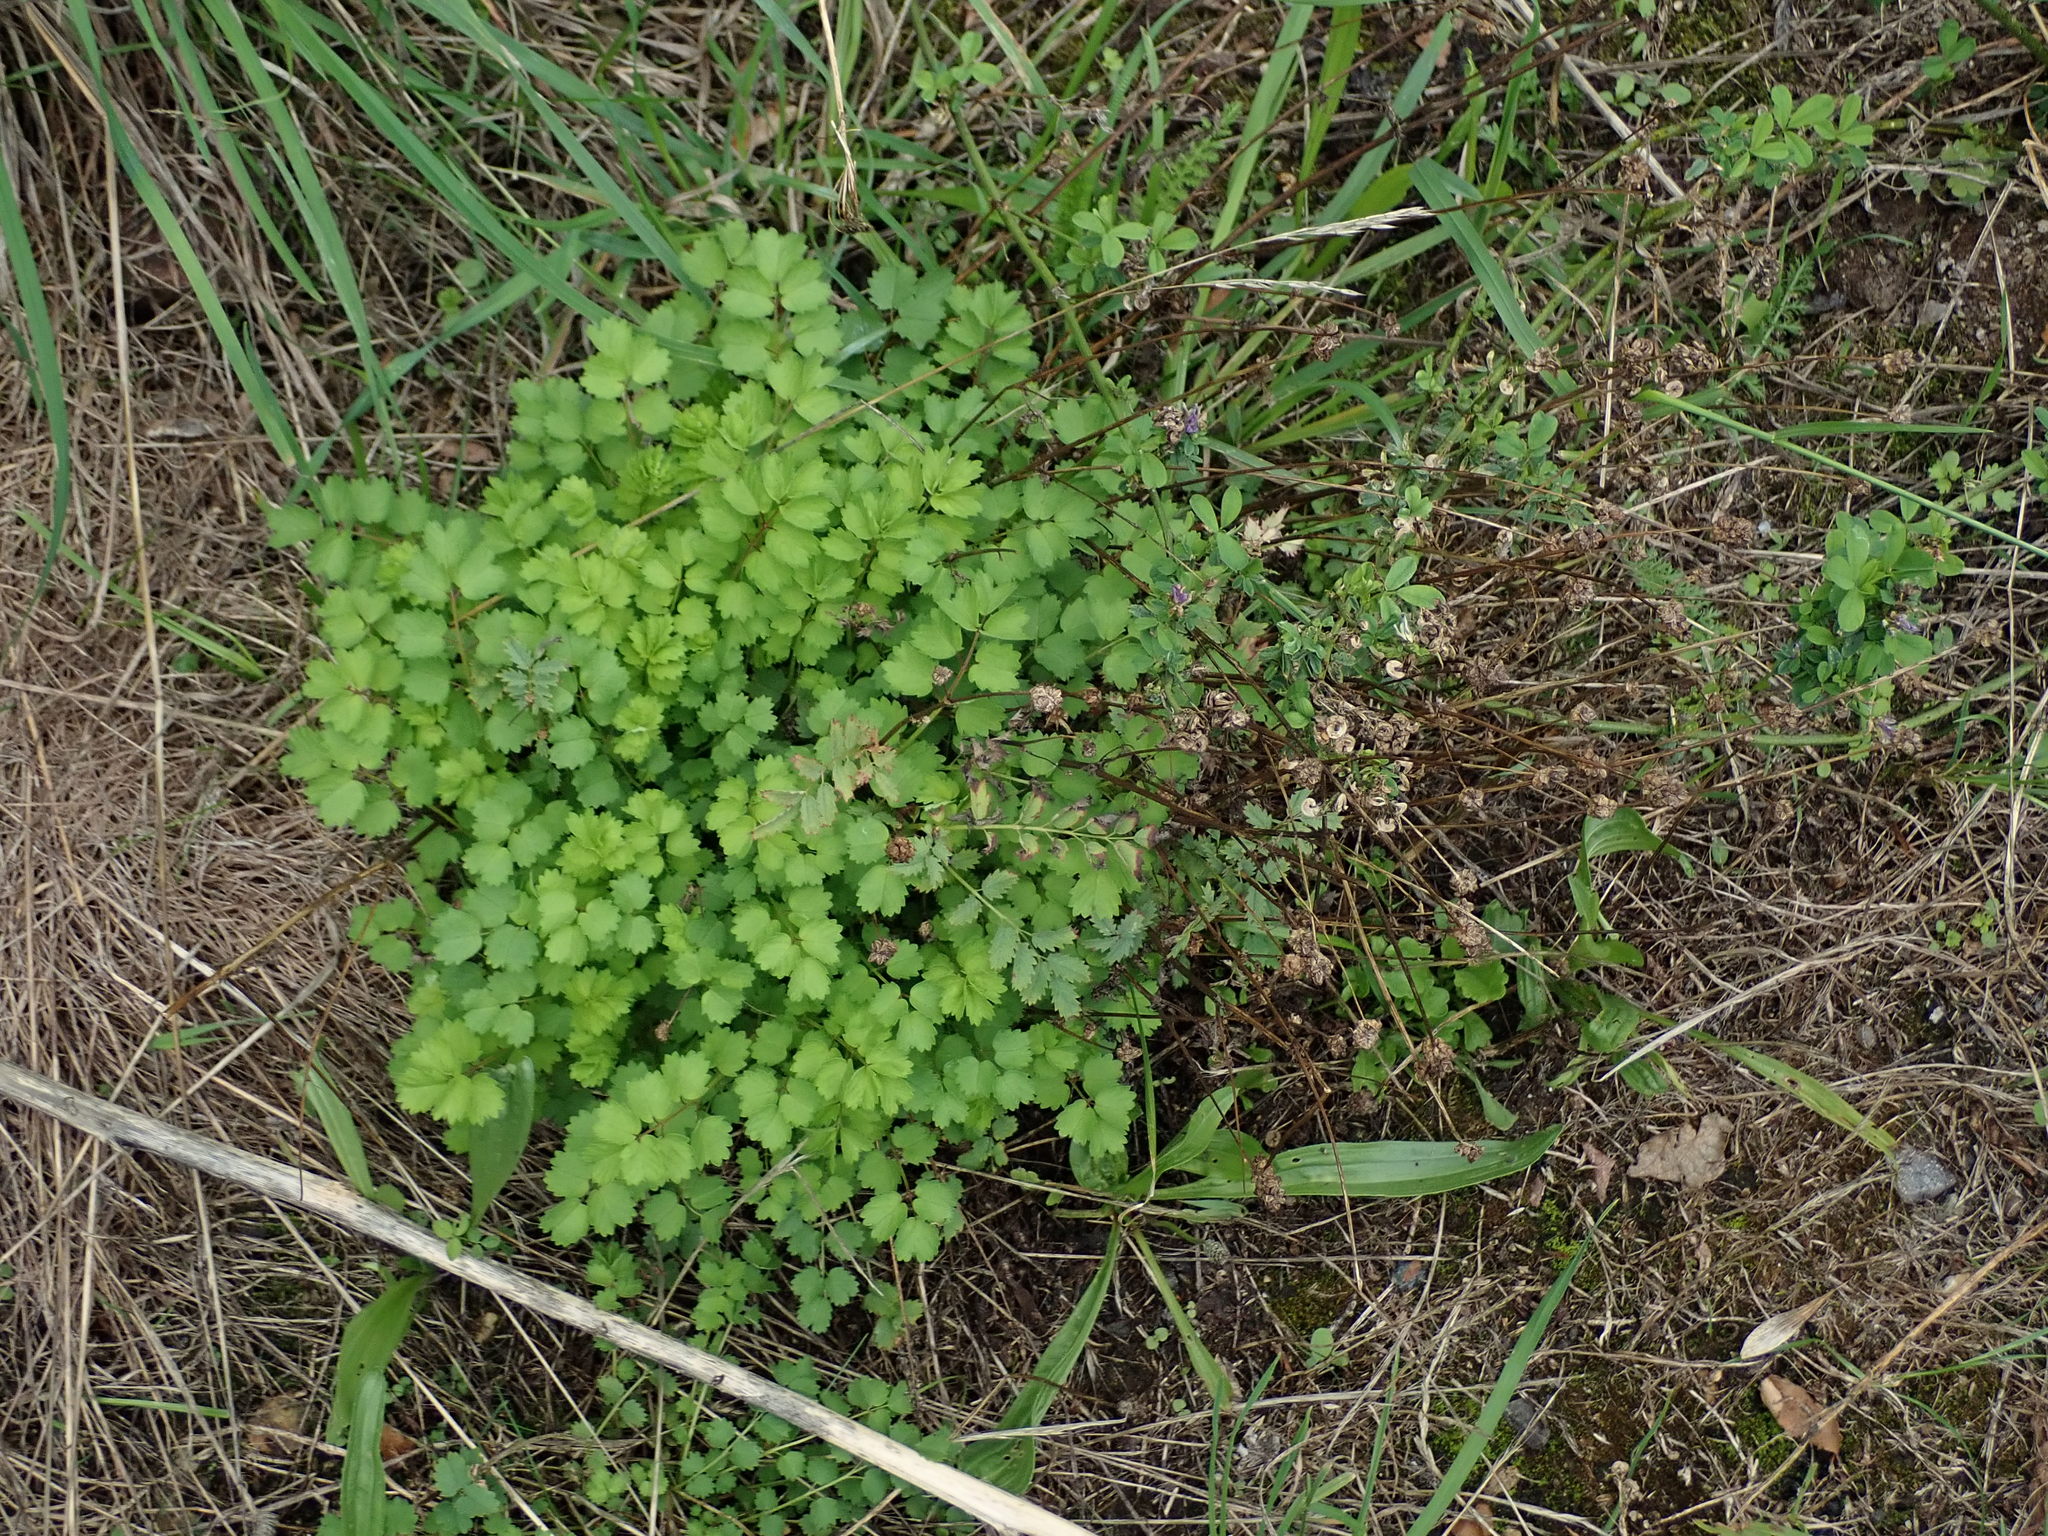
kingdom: Plantae
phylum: Tracheophyta
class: Magnoliopsida
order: Rosales
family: Rosaceae
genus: Poterium
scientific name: Poterium sanguisorba
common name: Salad burnet
